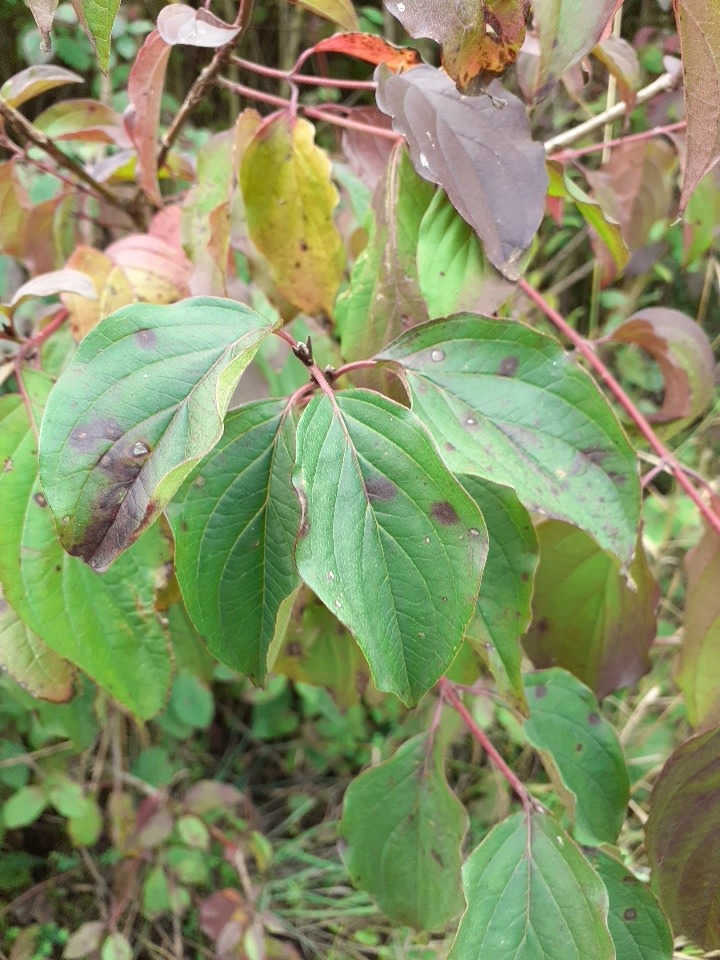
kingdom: Plantae
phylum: Tracheophyta
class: Magnoliopsida
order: Cornales
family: Cornaceae
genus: Cornus
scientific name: Cornus sanguinea
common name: Dogwood
